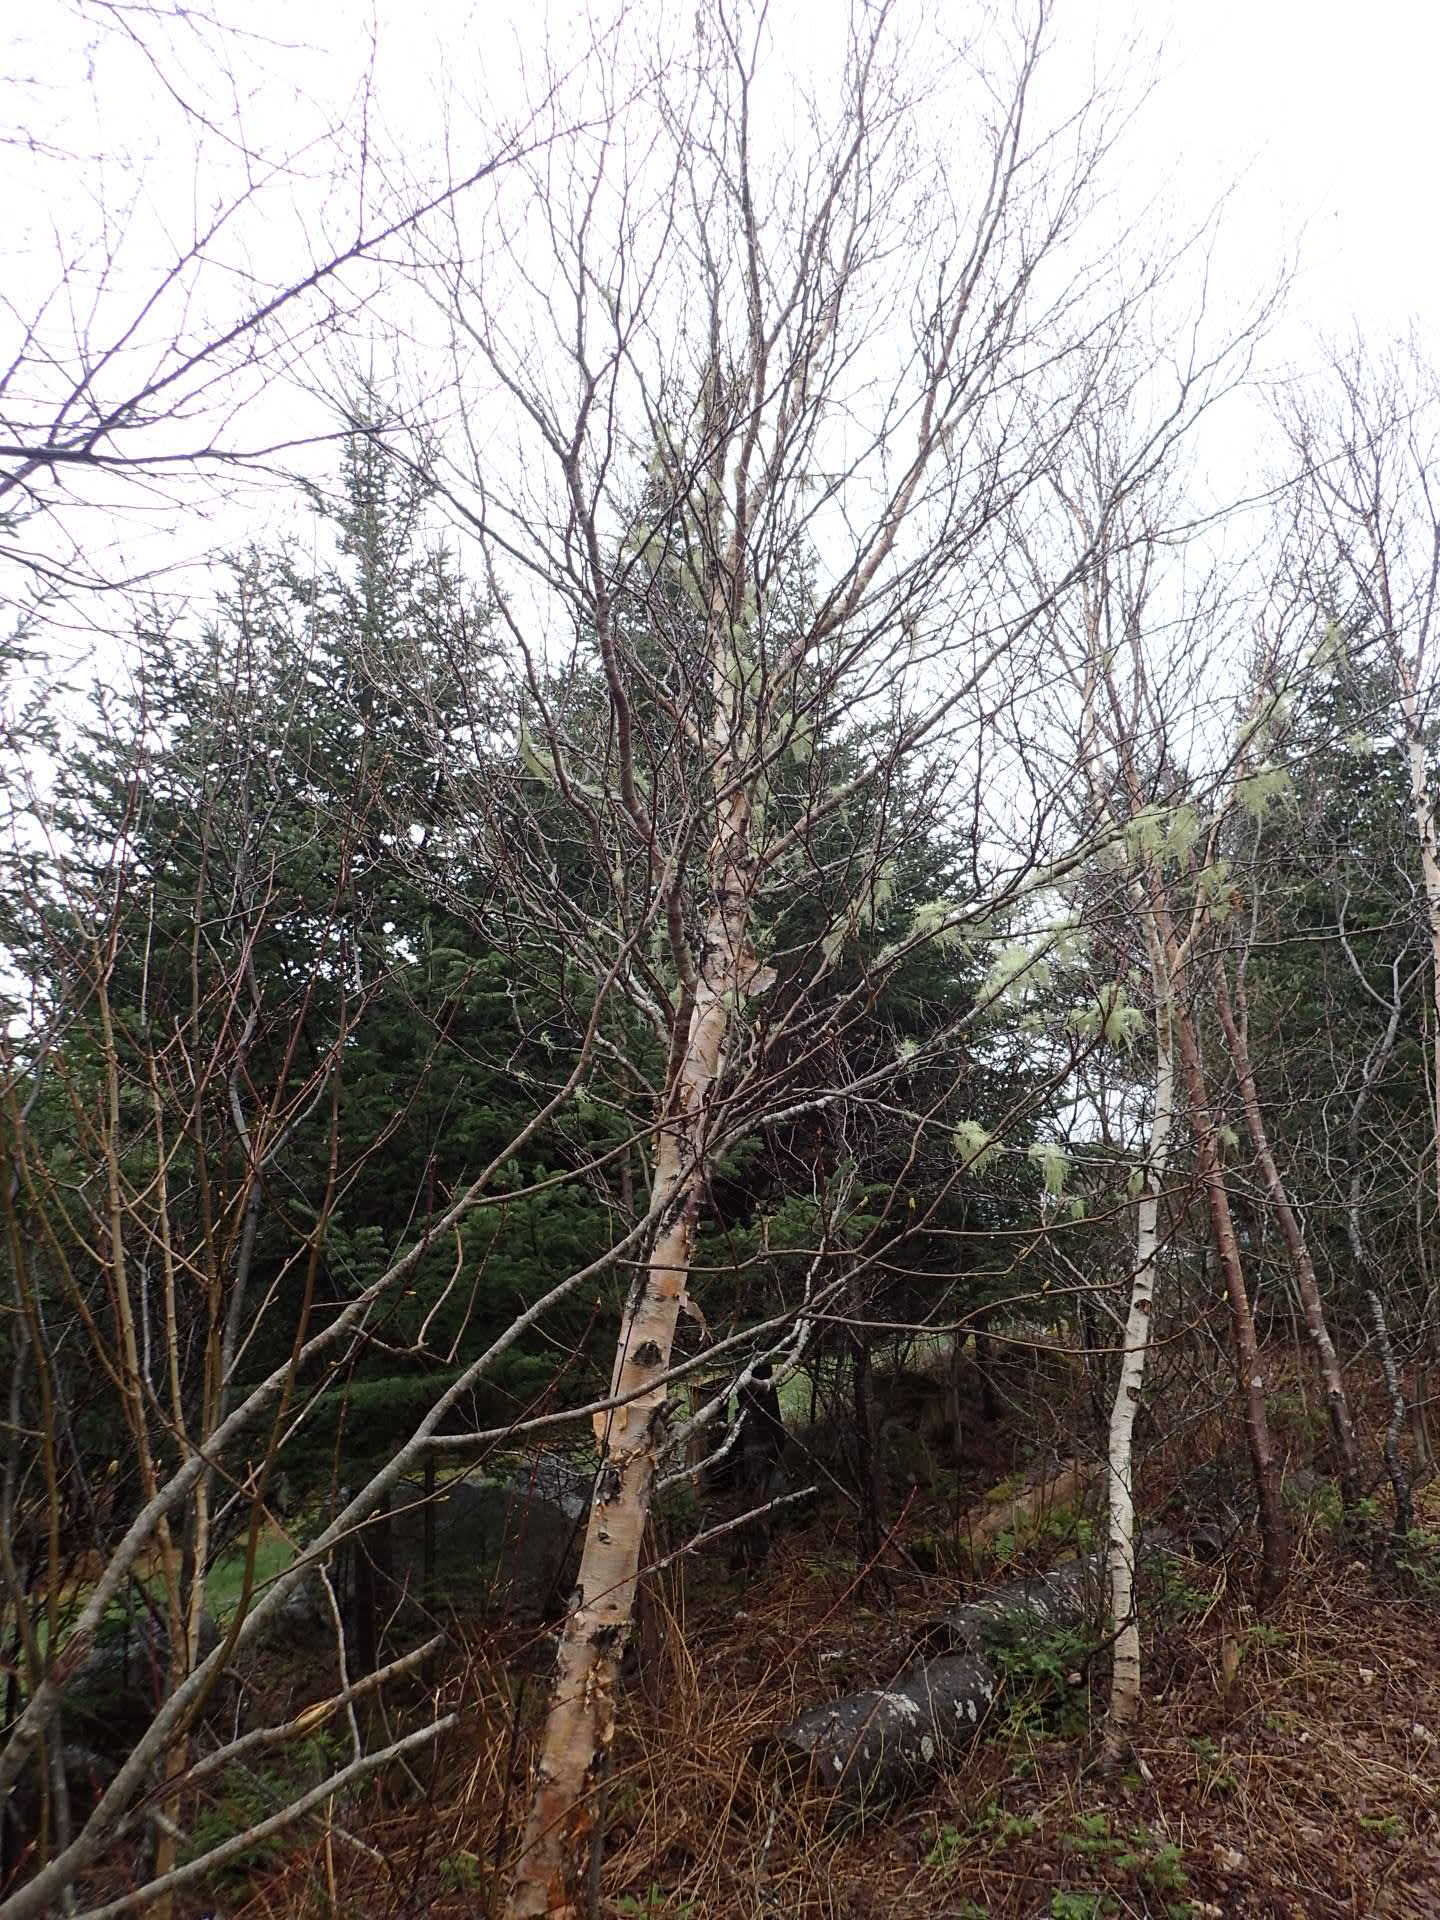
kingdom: Plantae
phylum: Tracheophyta
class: Magnoliopsida
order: Fagales
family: Betulaceae
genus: Betula
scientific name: Betula papyrifera
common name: Paper birch
